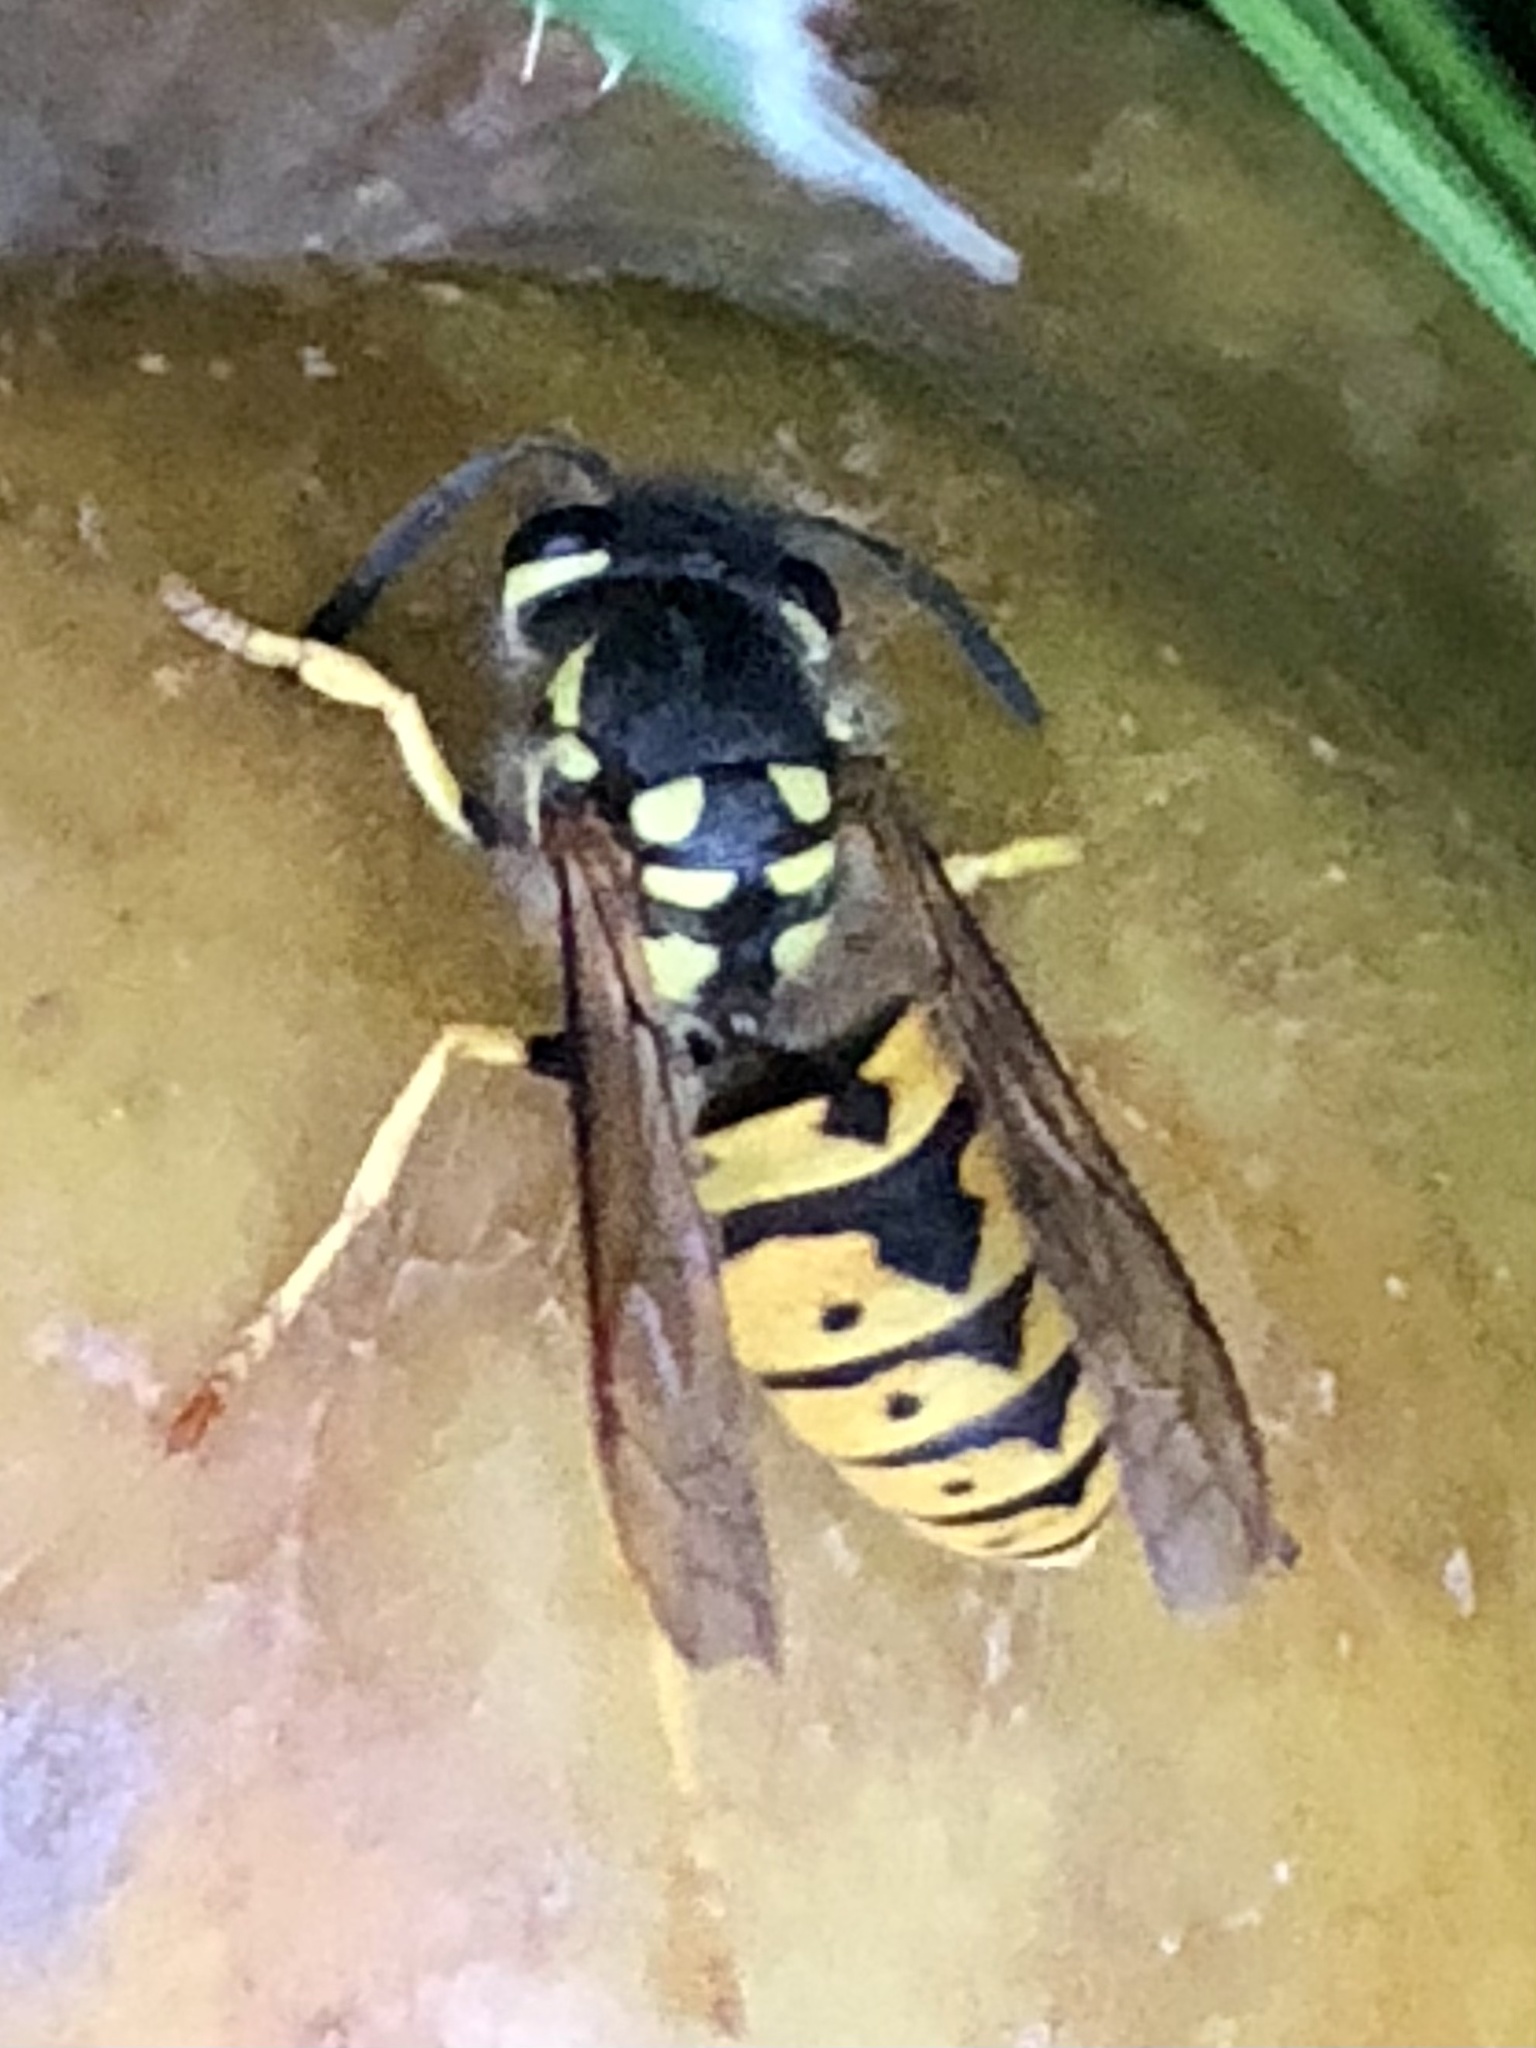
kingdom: Animalia
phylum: Arthropoda
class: Insecta
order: Hymenoptera
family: Vespidae
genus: Vespula
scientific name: Vespula germanica
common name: German wasp
